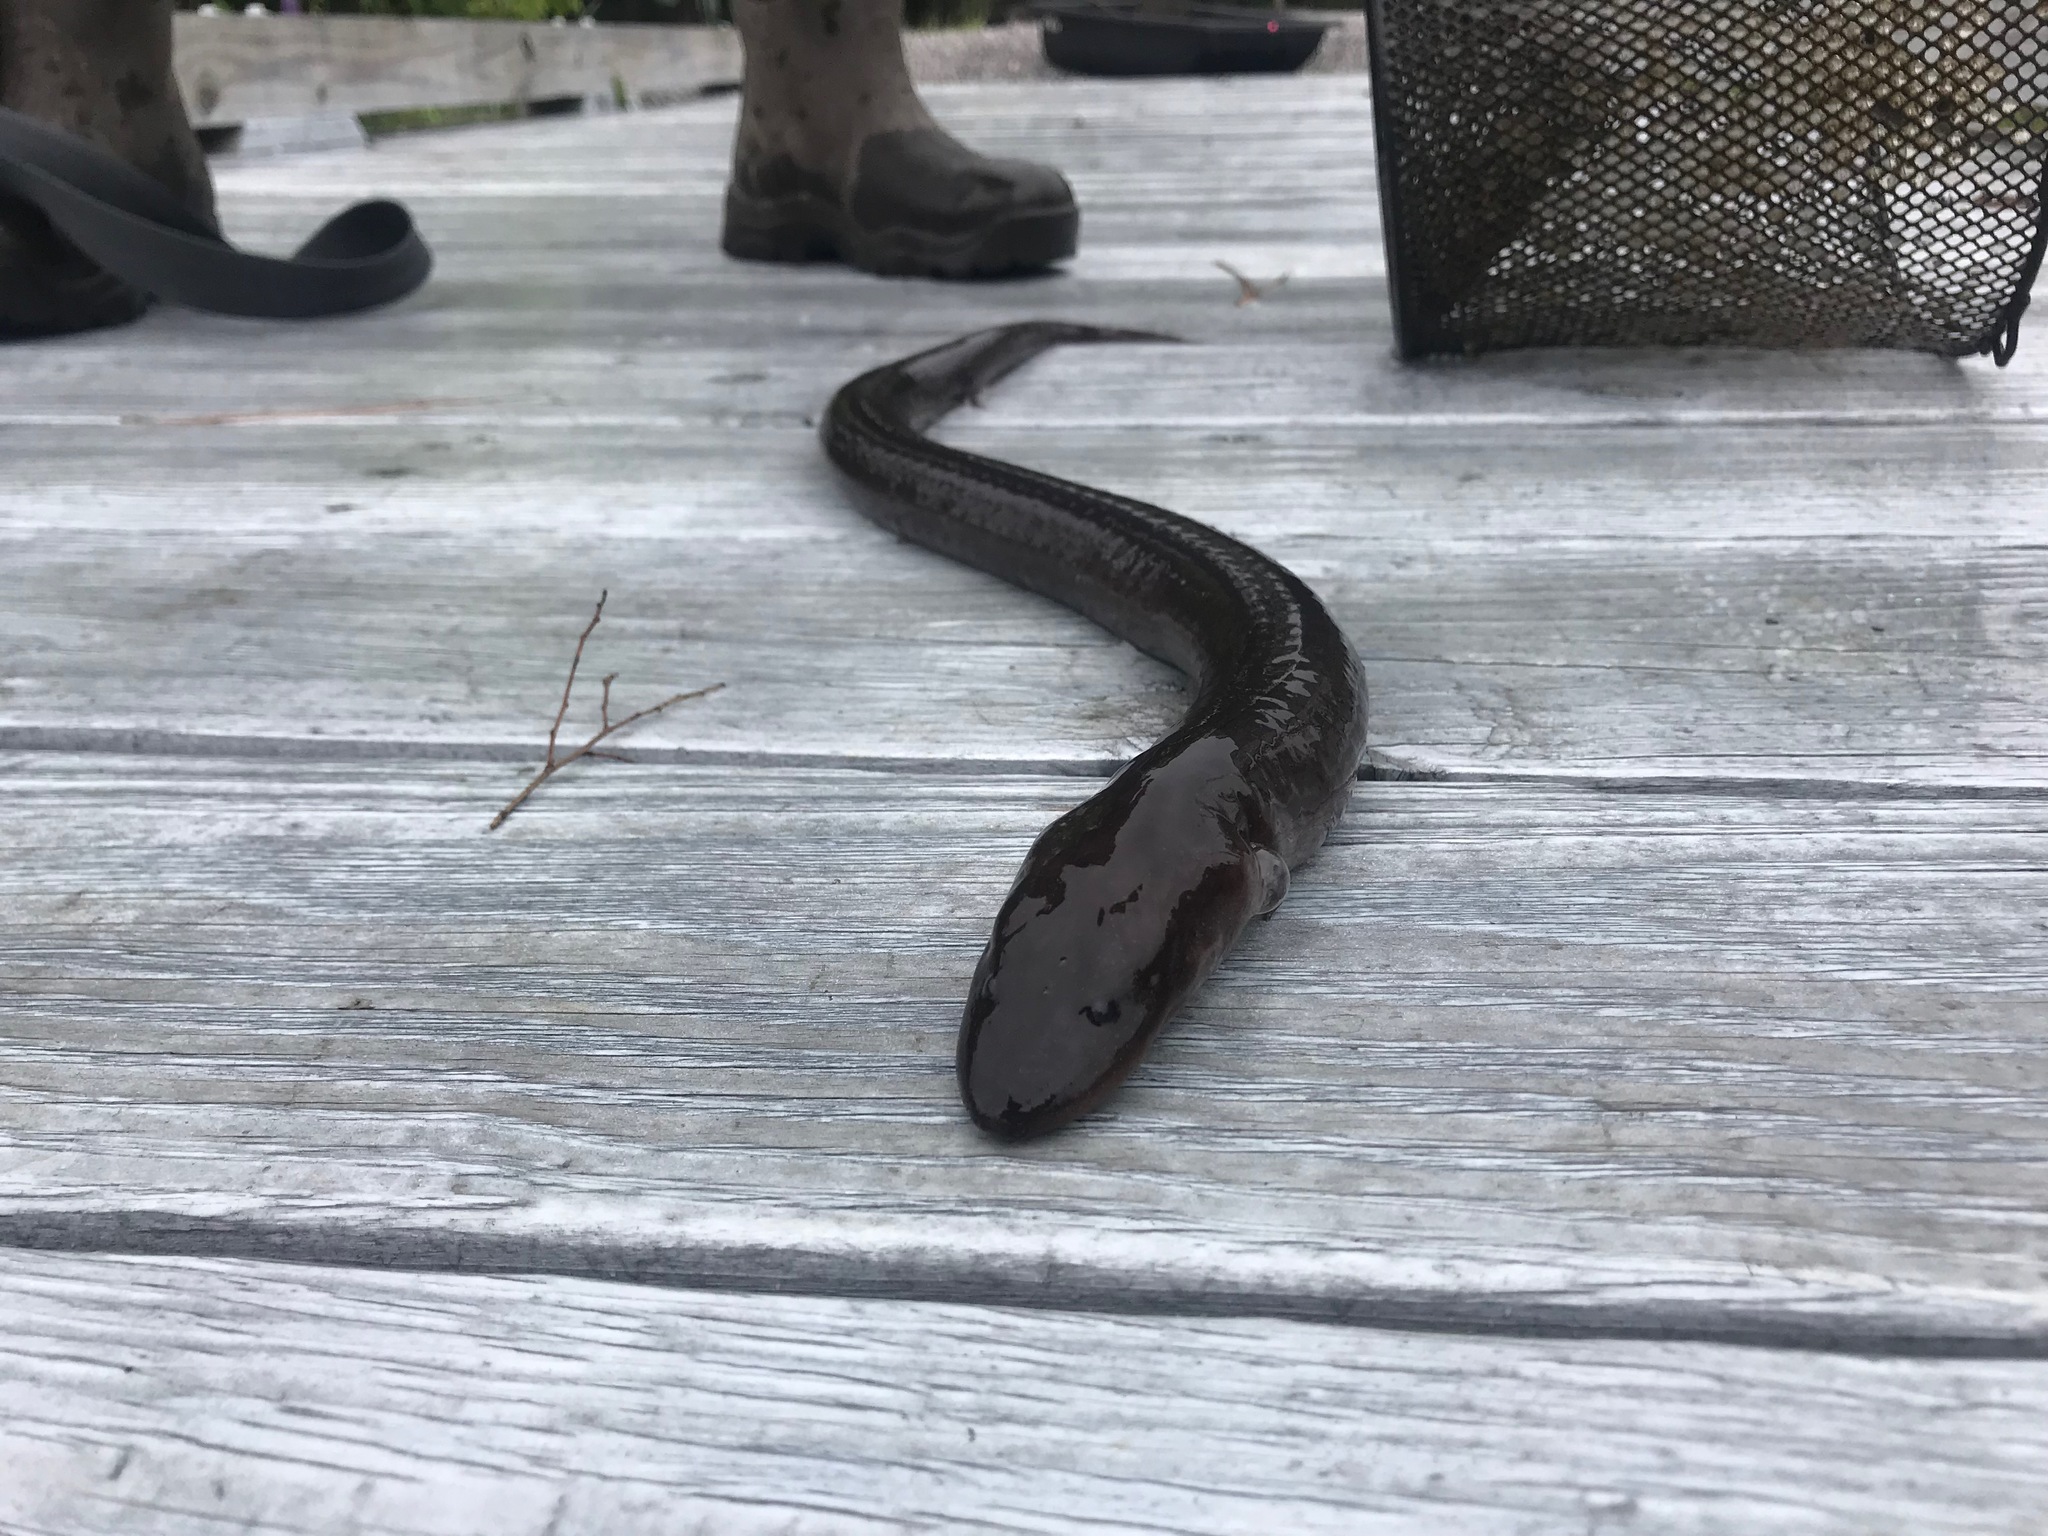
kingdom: Animalia
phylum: Chordata
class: Amphibia
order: Caudata
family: Amphiumidae
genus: Amphiuma
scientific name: Amphiuma means
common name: Two-toed amphiuma
